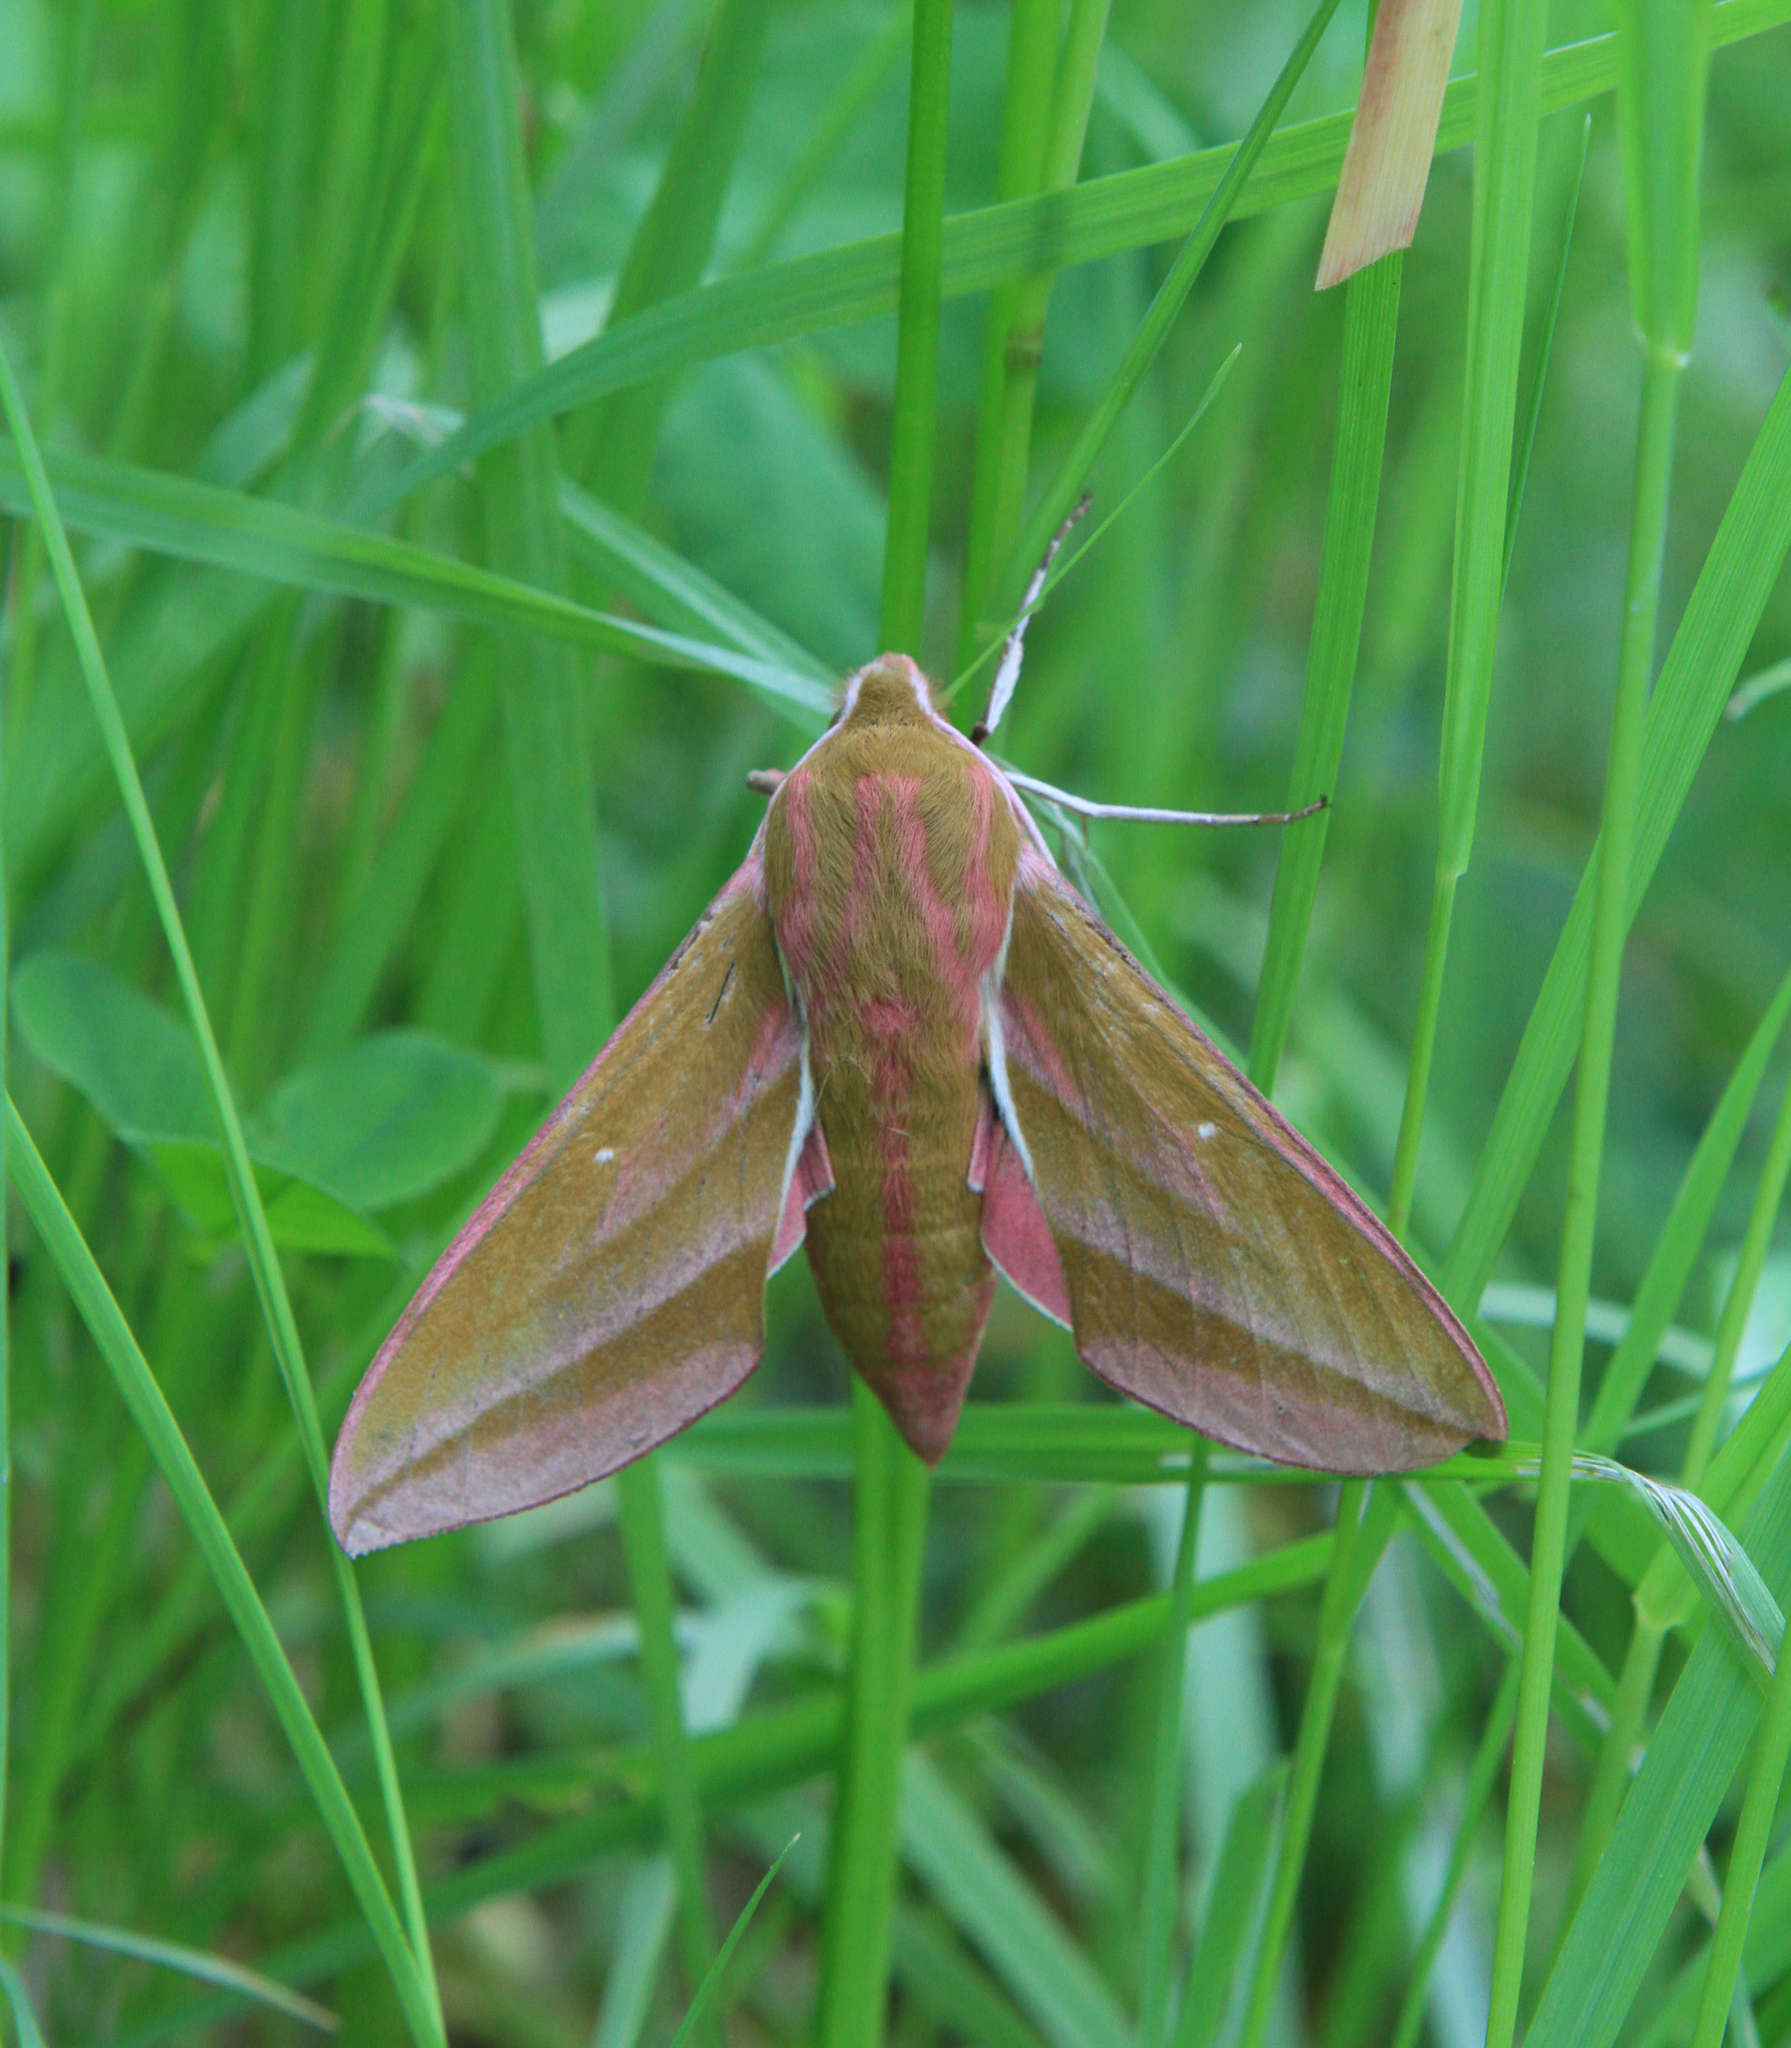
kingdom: Animalia
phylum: Arthropoda
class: Insecta
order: Lepidoptera
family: Sphingidae
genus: Deilephila
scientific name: Deilephila elpenor
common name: Elephant hawk-moth
